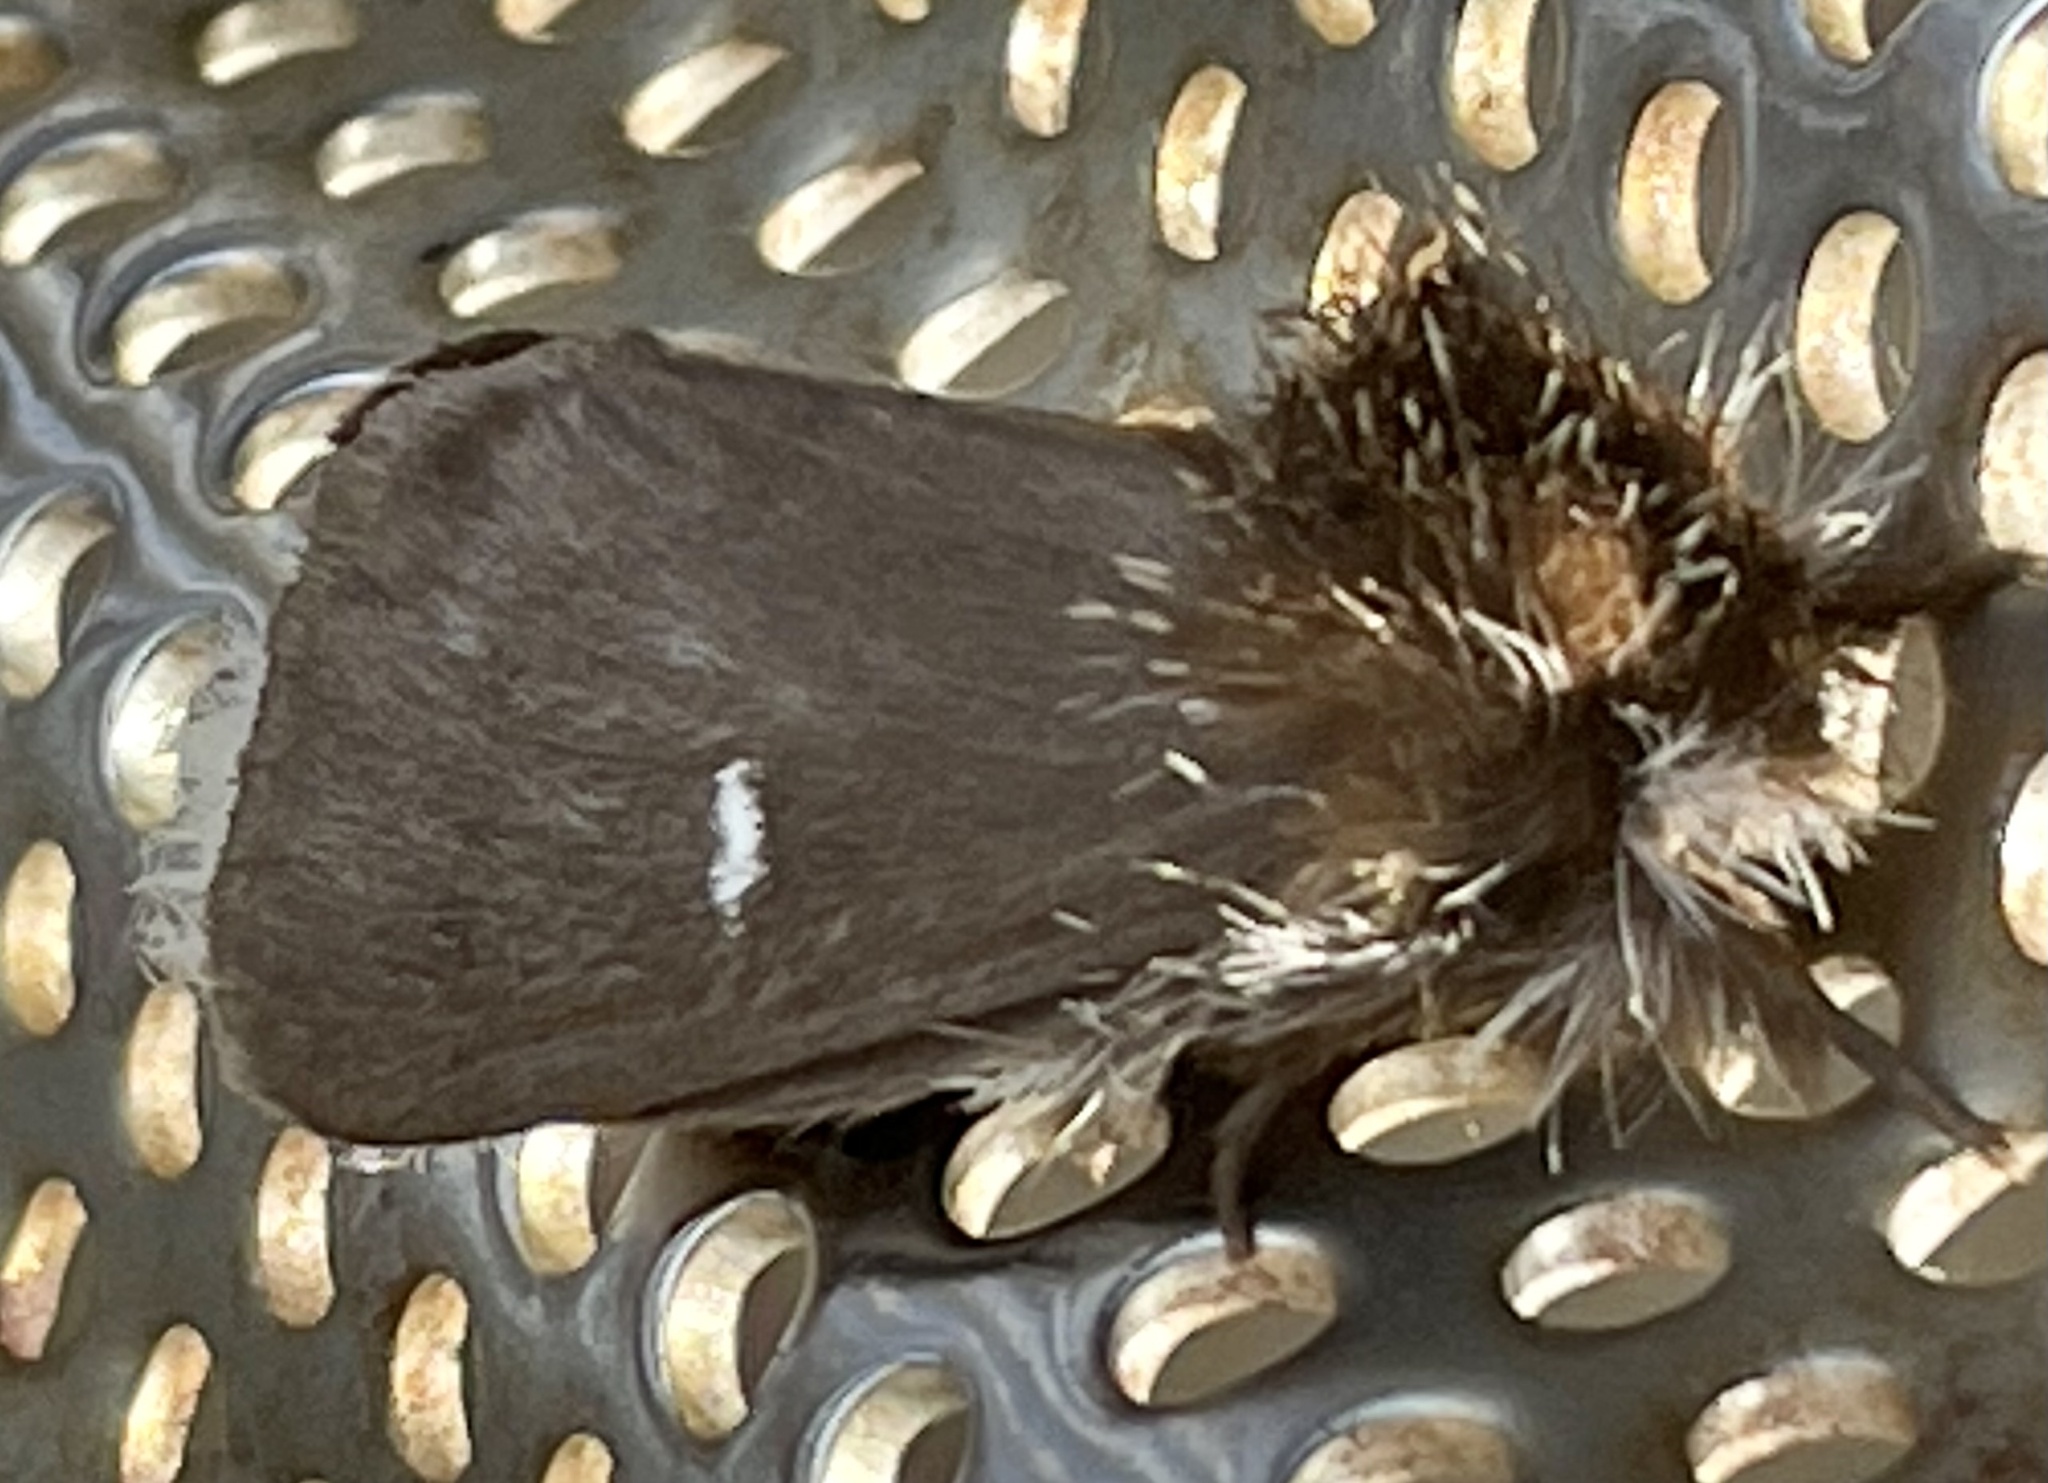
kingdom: Animalia
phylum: Arthropoda
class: Insecta
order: Lepidoptera
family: Notodontidae
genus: Ochrogaster
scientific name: Ochrogaster lunifer
